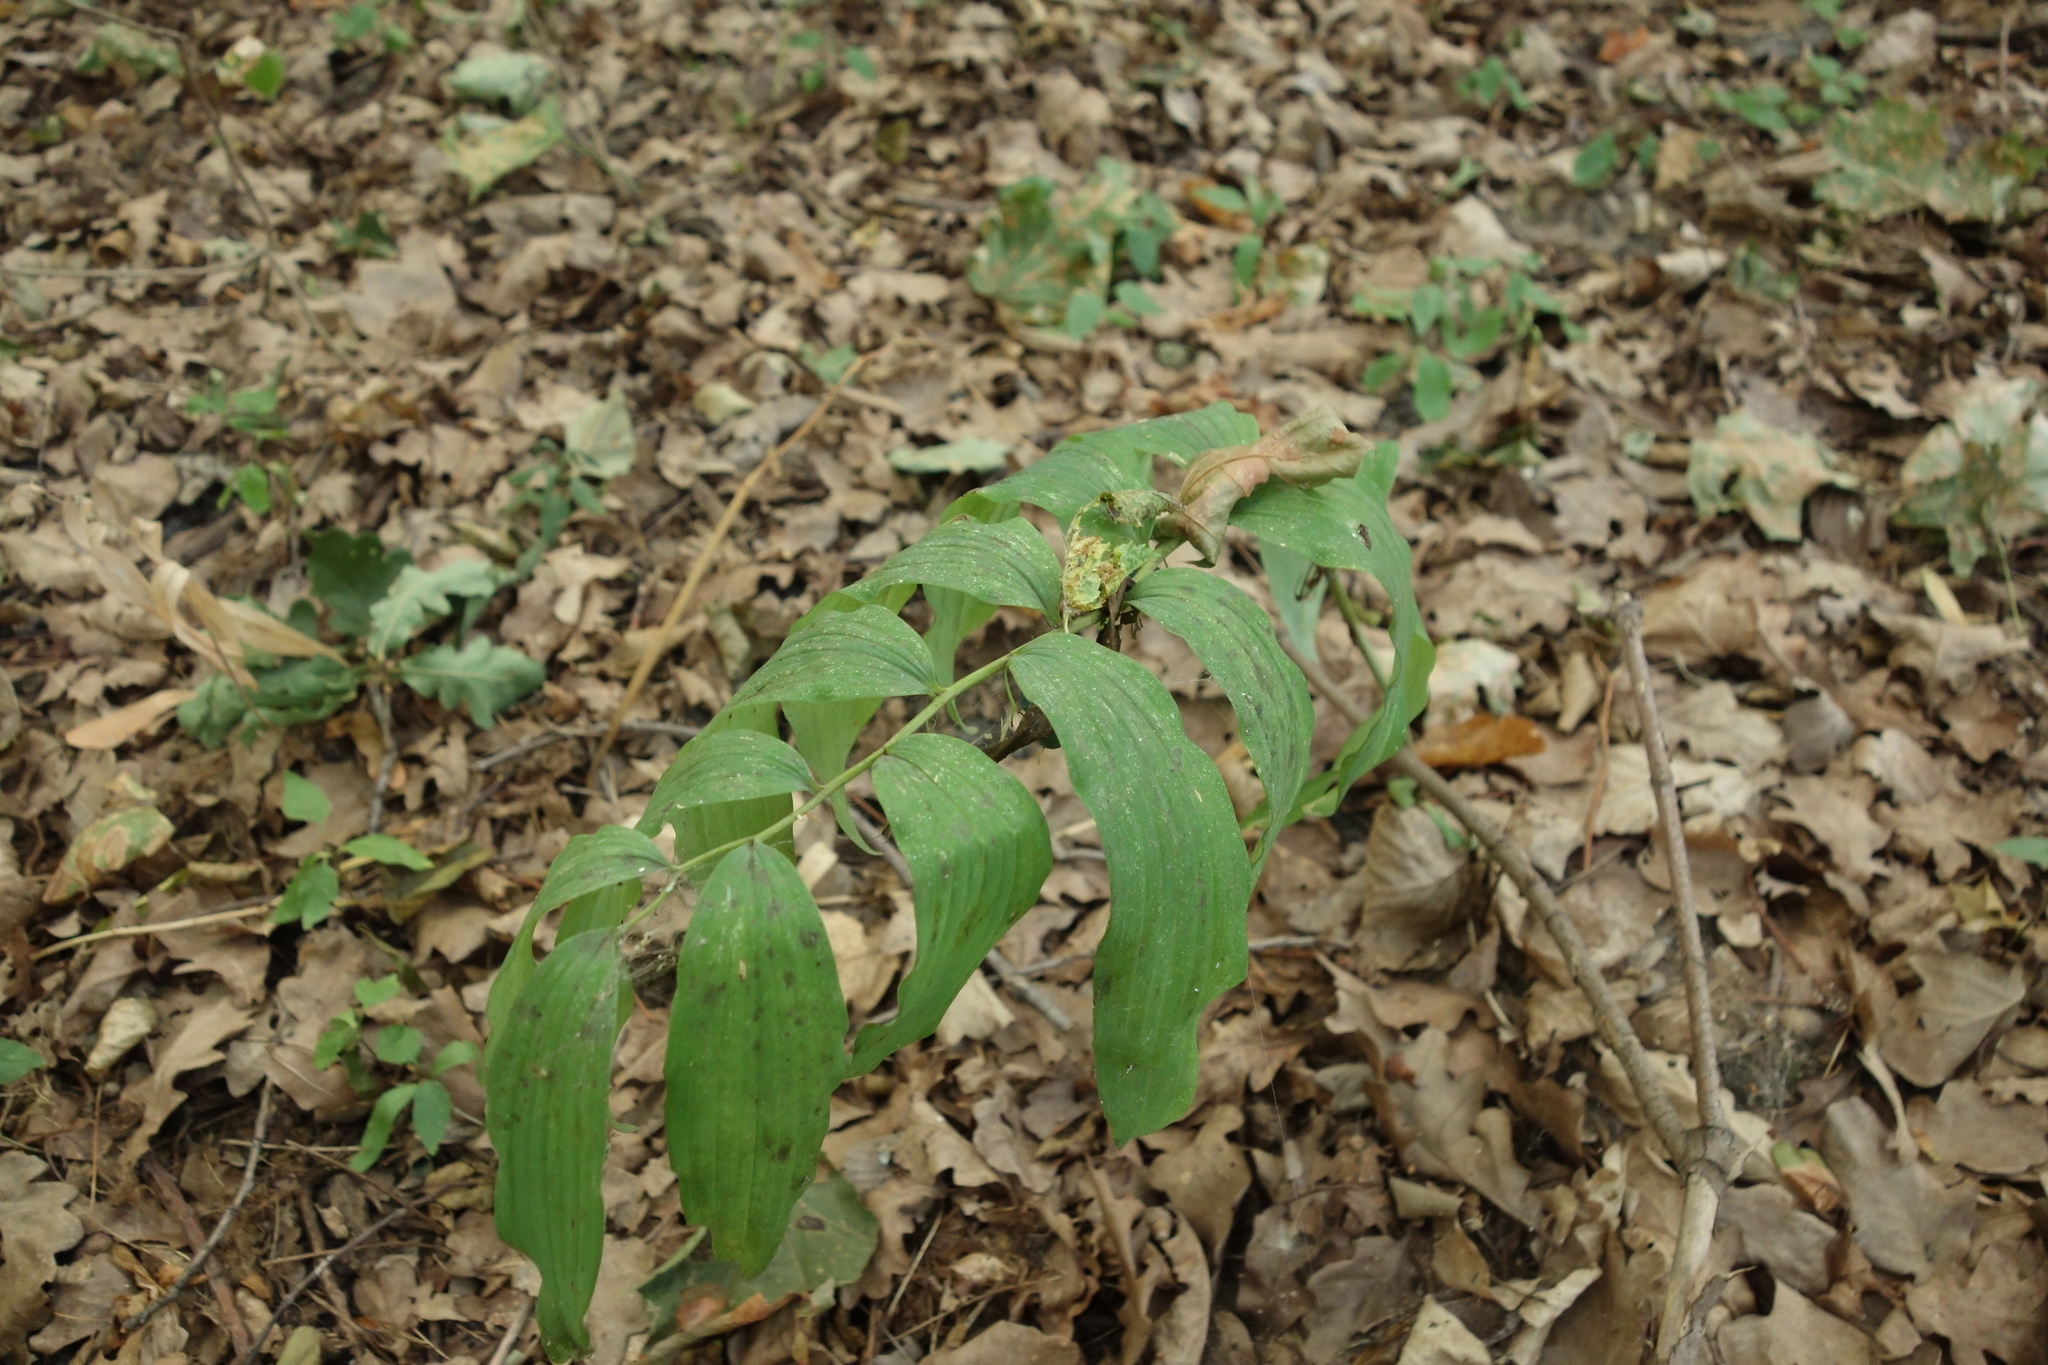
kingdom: Plantae
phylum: Tracheophyta
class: Liliopsida
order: Asparagales
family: Asparagaceae
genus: Polygonatum
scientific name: Polygonatum multiflorum
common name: Solomon's-seal
